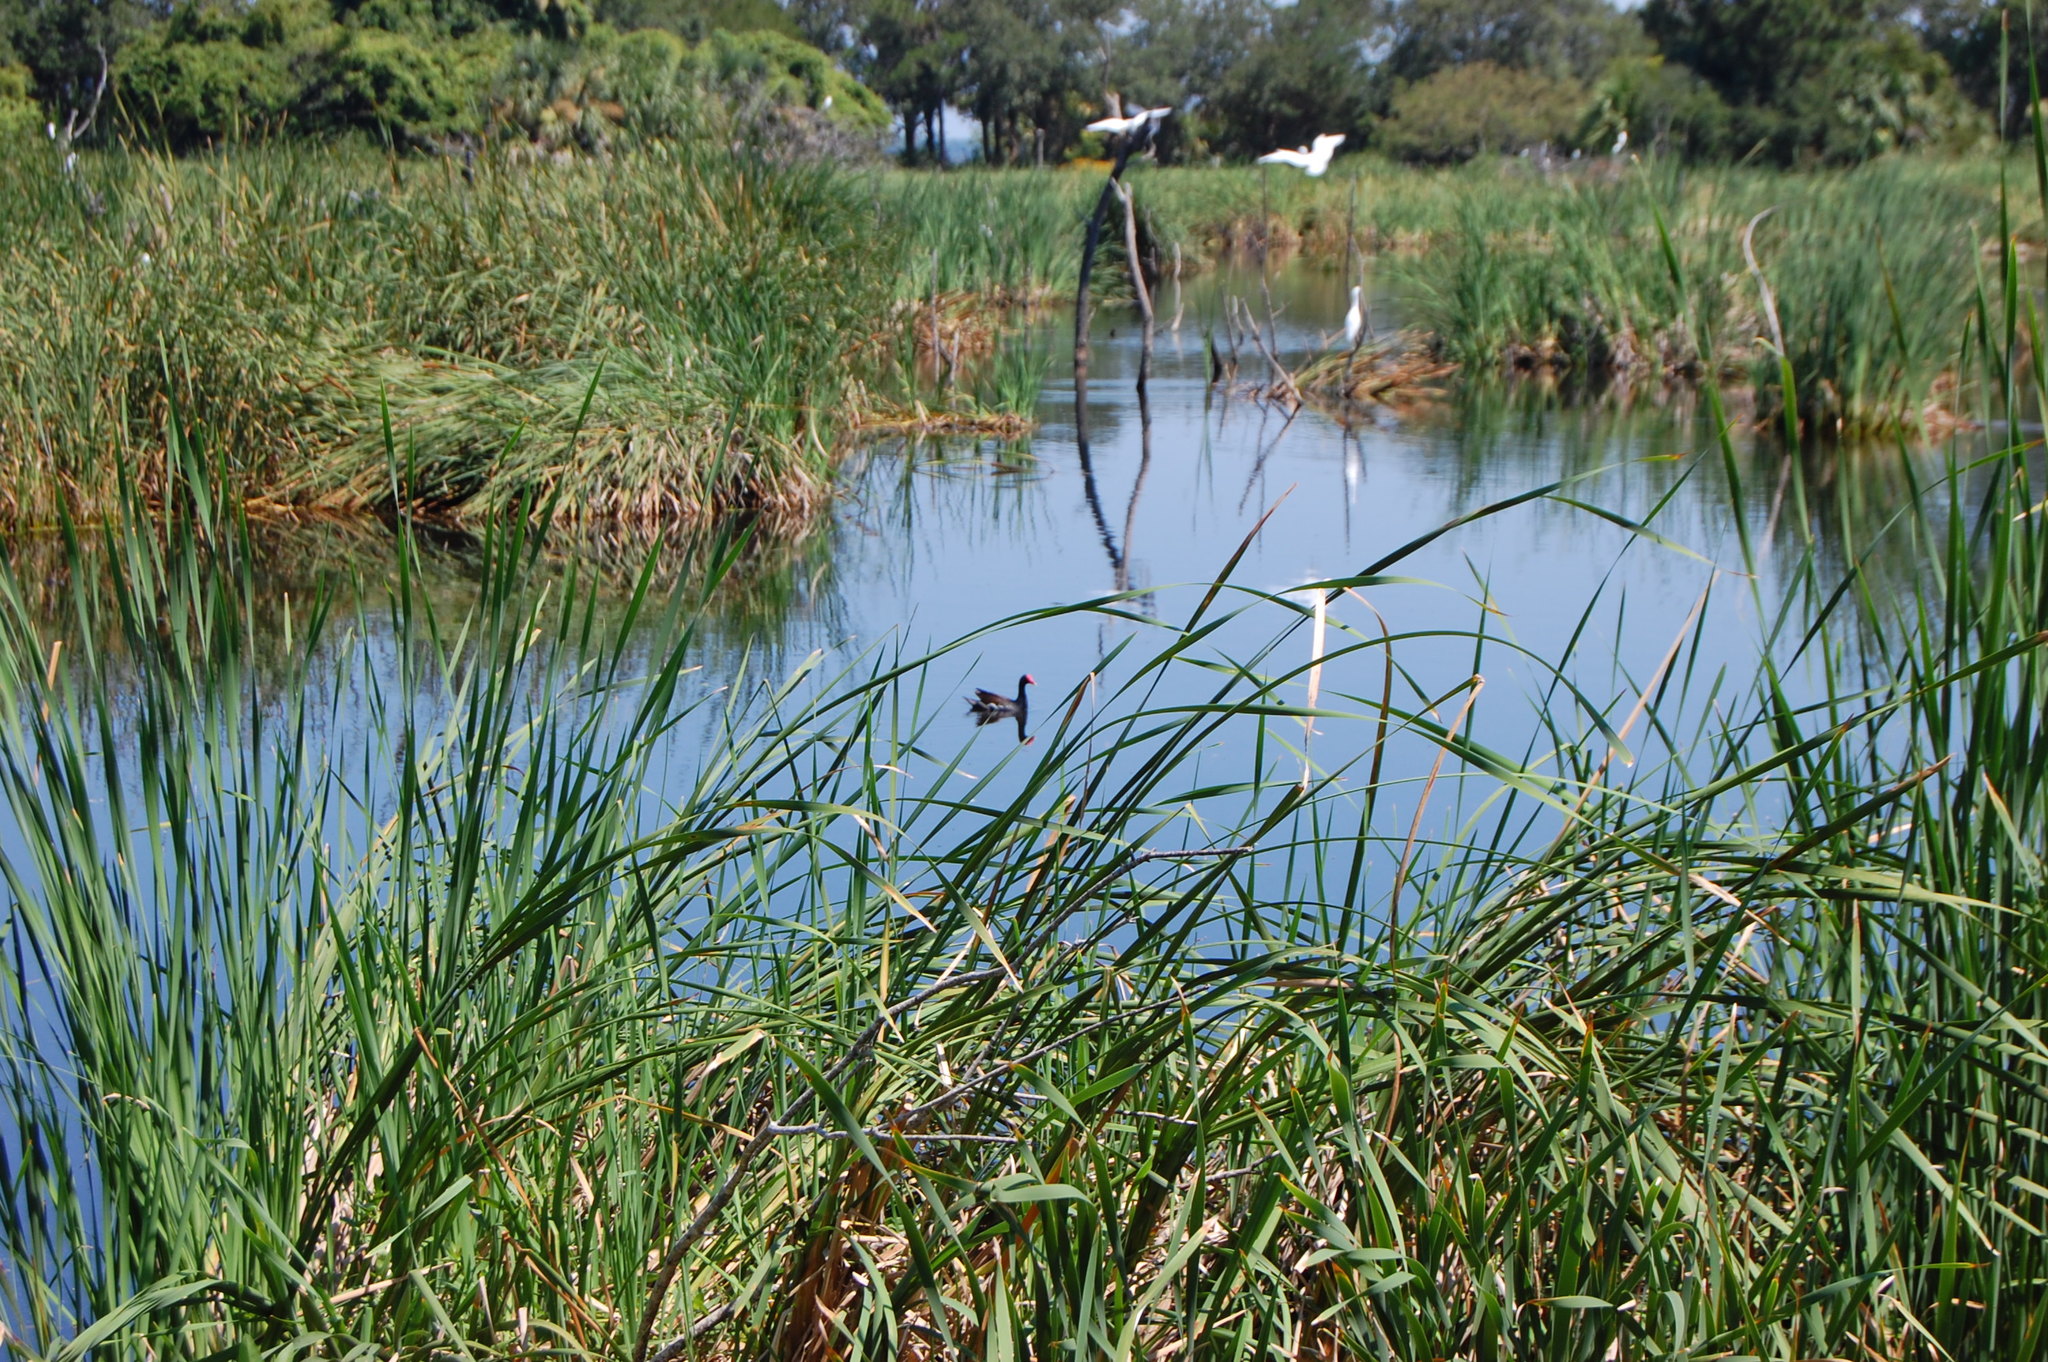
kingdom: Animalia
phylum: Chordata
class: Aves
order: Gruiformes
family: Rallidae
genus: Gallinula
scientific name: Gallinula chloropus
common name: Common moorhen
